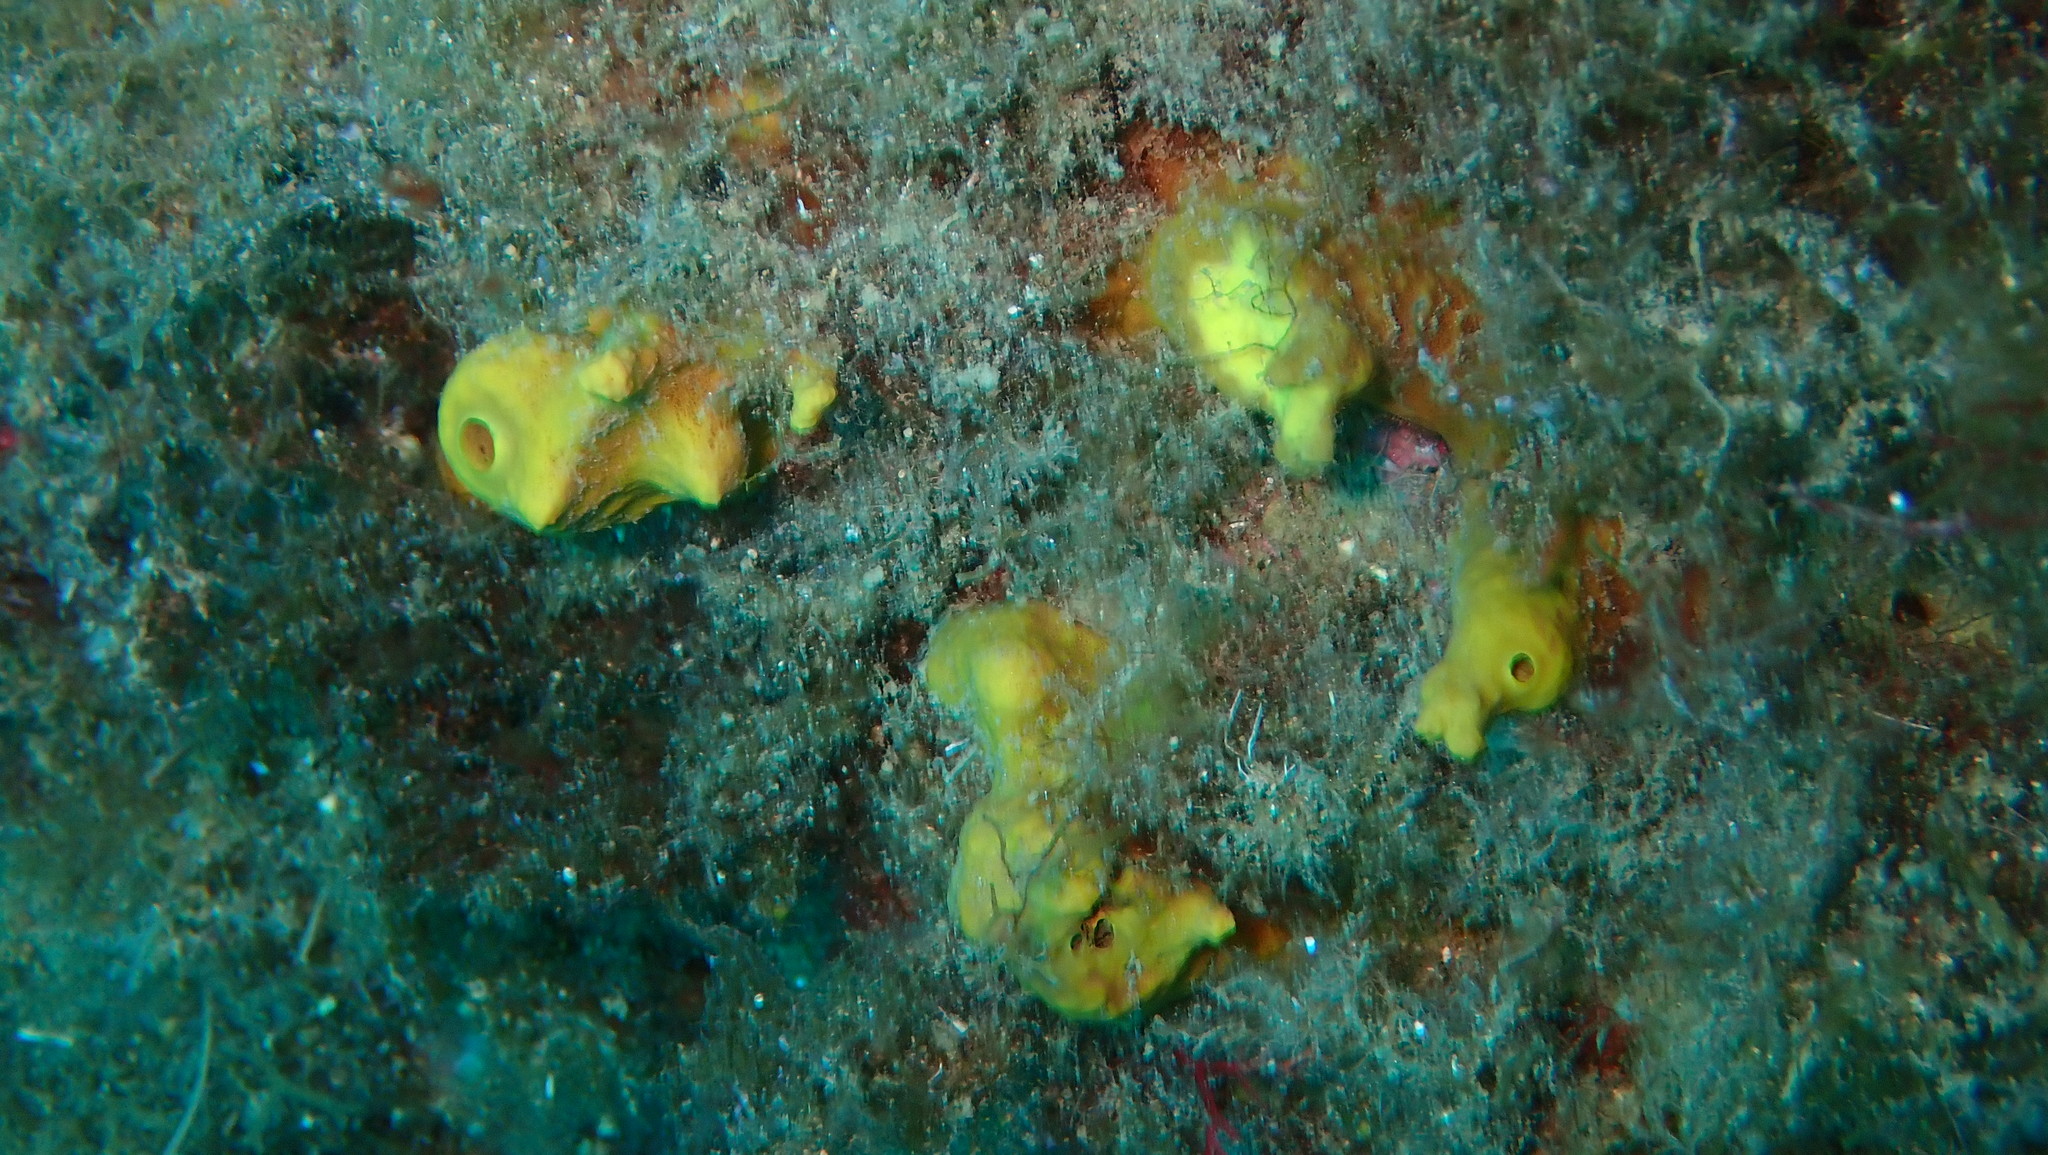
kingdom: Animalia
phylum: Porifera
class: Demospongiae
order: Verongiida
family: Aplysinidae
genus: Aplysina
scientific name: Aplysina aerophoba
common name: Aureate sponge
